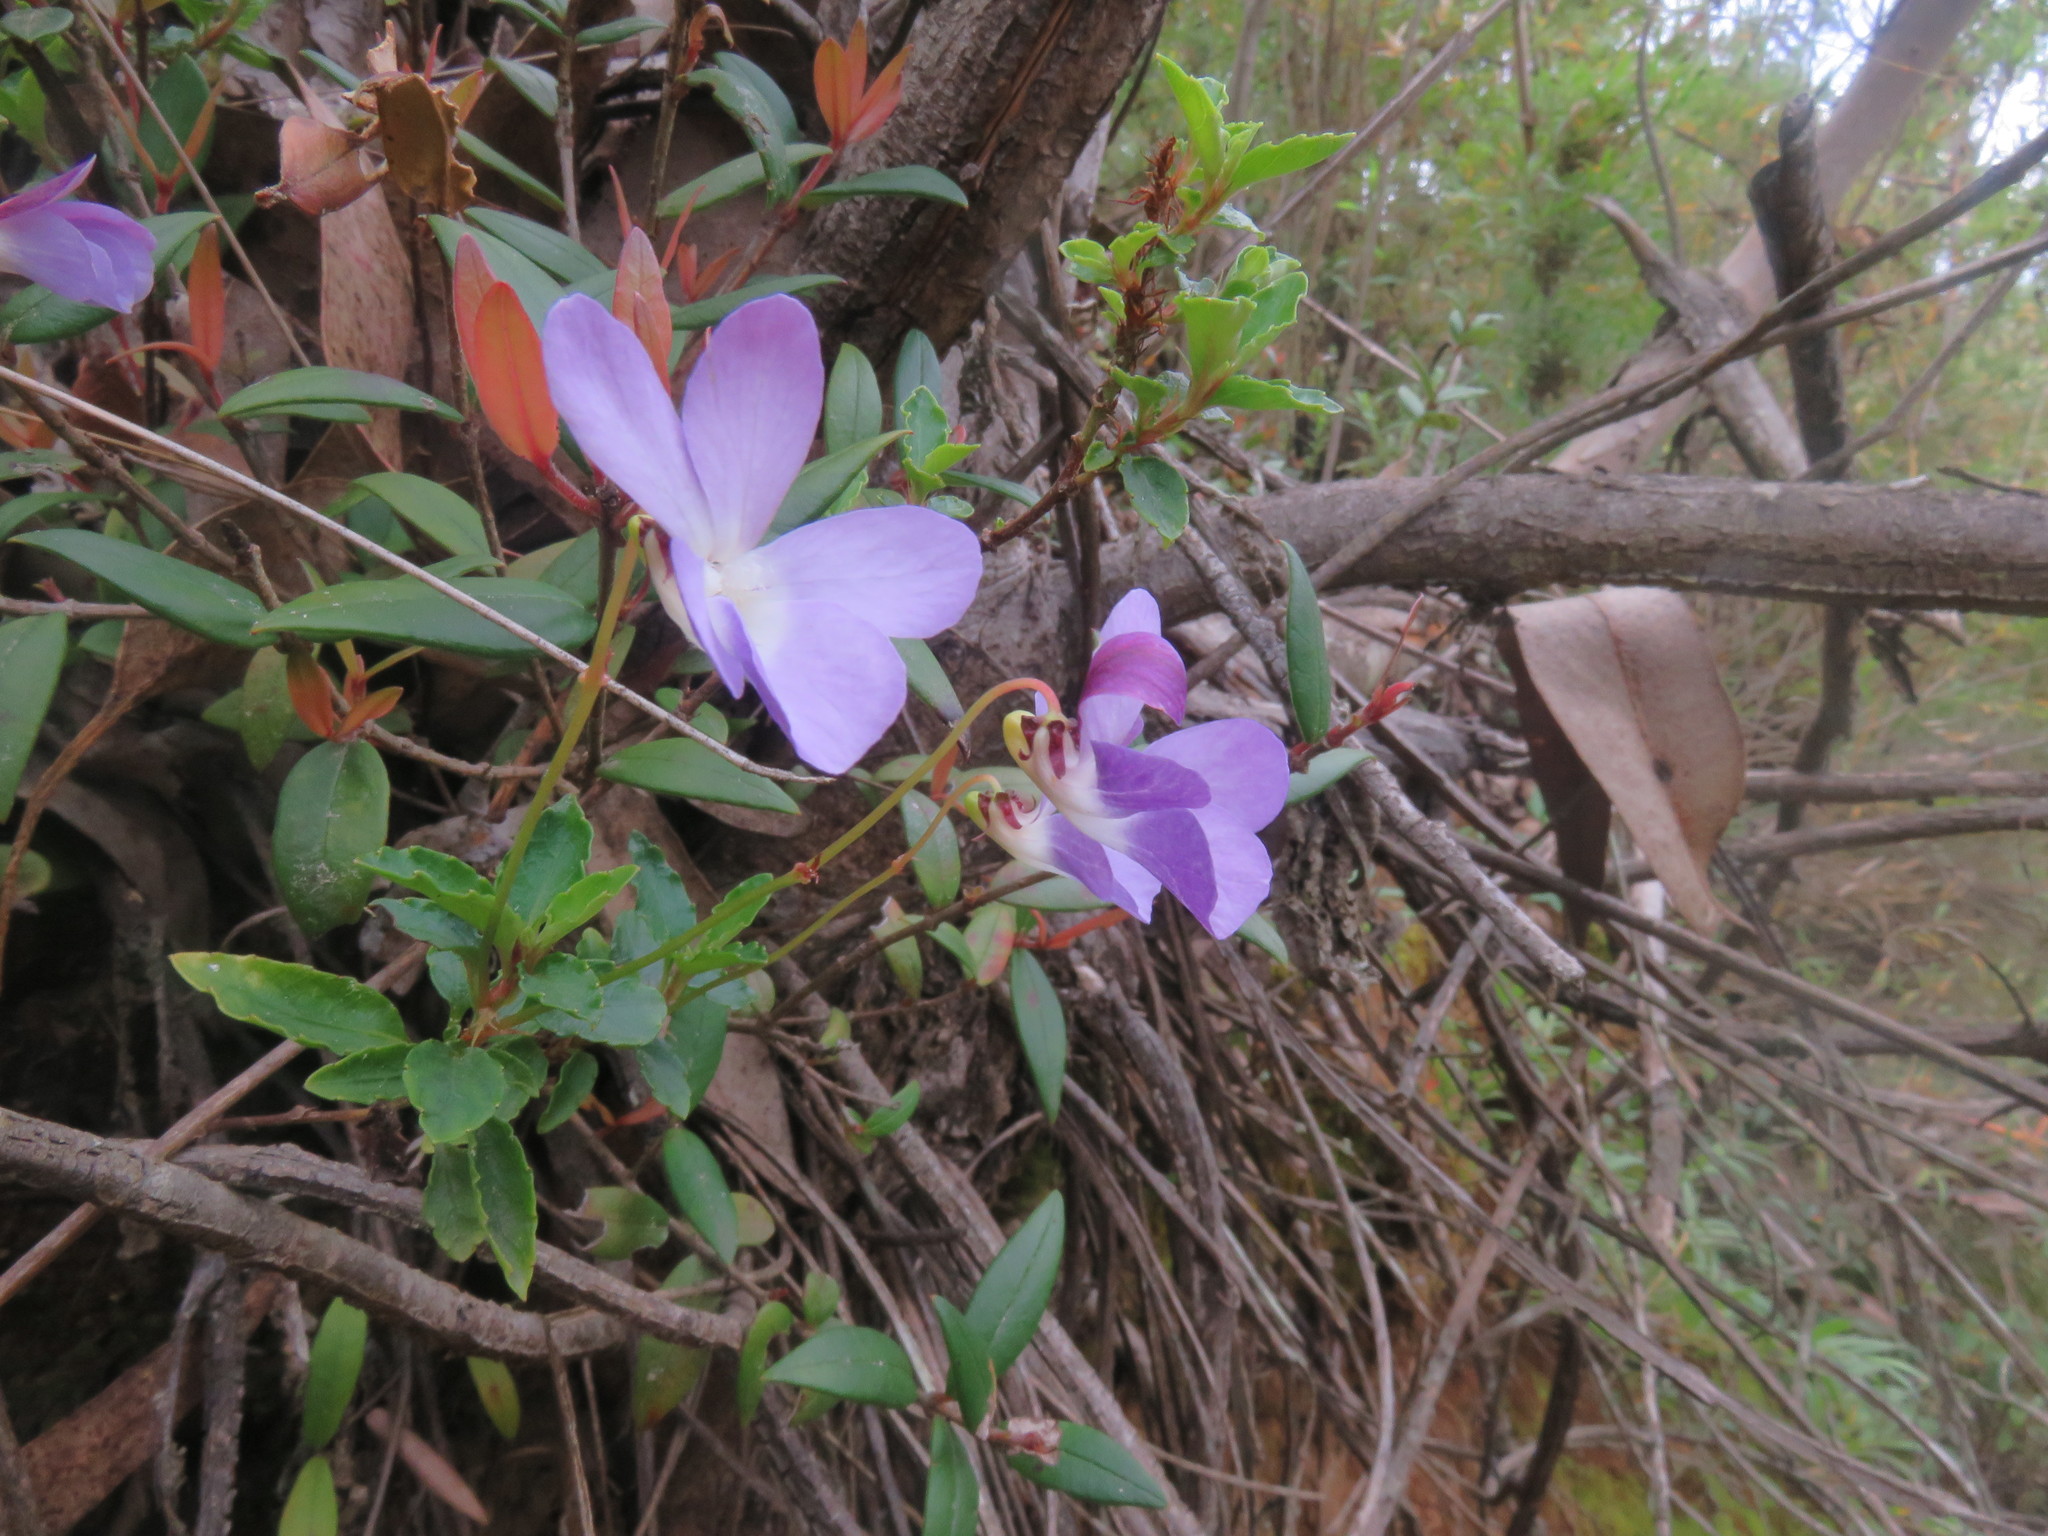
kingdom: Plantae
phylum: Tracheophyta
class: Magnoliopsida
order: Malpighiales
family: Violaceae
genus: Viola
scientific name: Viola portalesia
